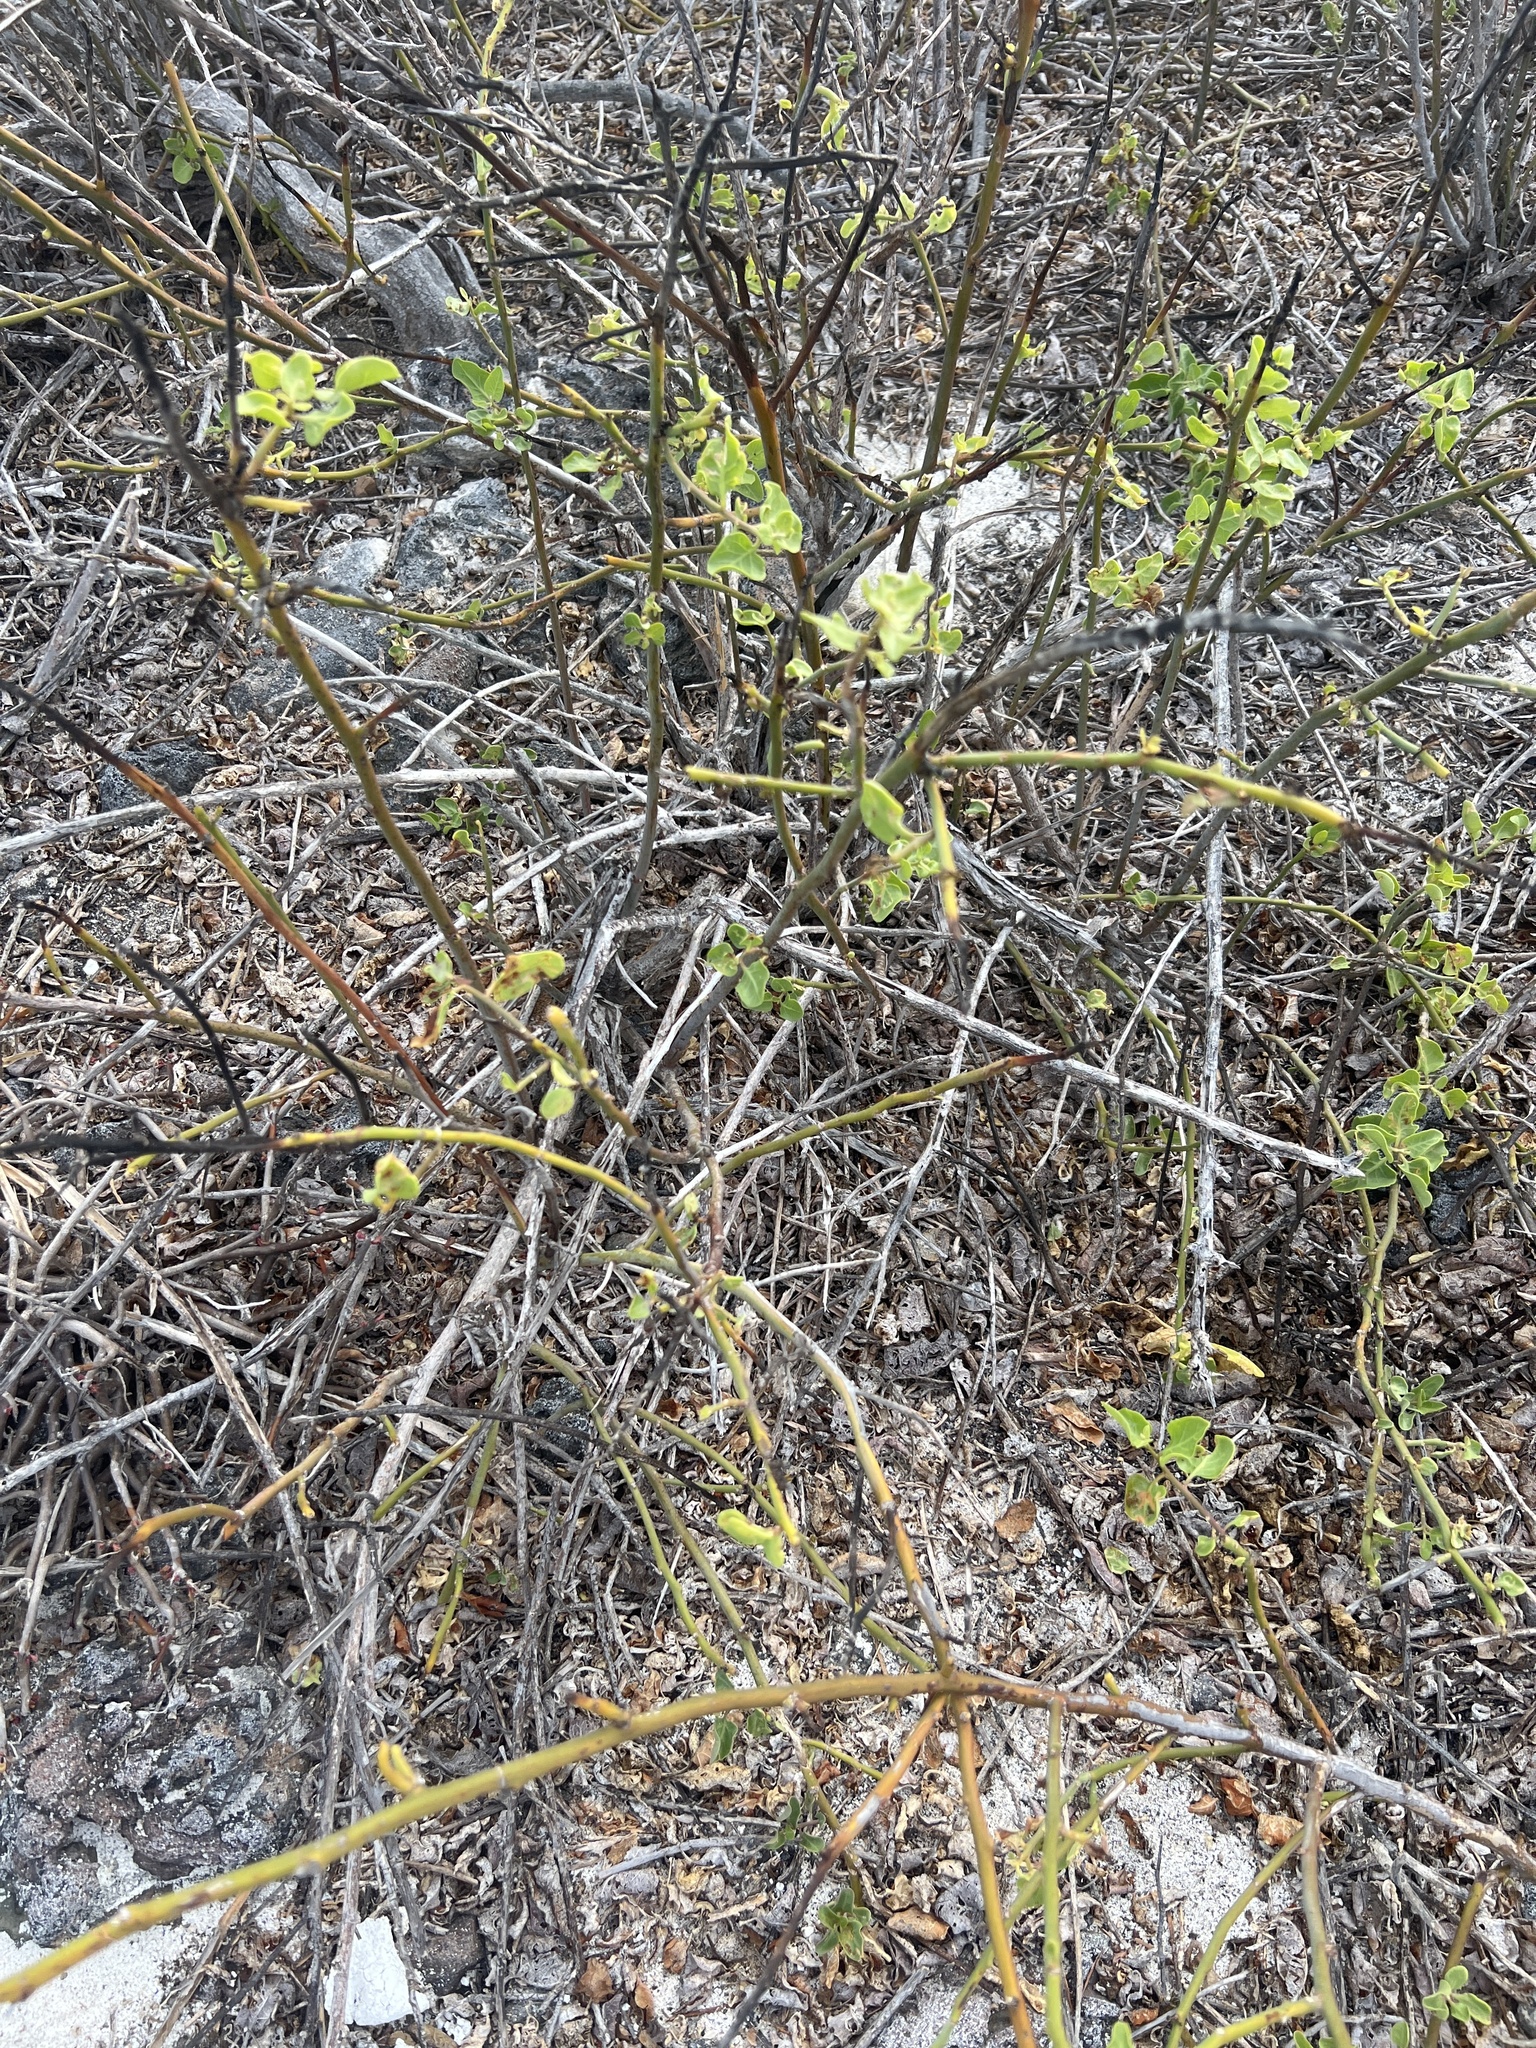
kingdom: Plantae
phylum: Tracheophyta
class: Magnoliopsida
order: Caryophyllales
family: Nyctaginaceae
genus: Cryptocarpus
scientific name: Cryptocarpus pyriformis
